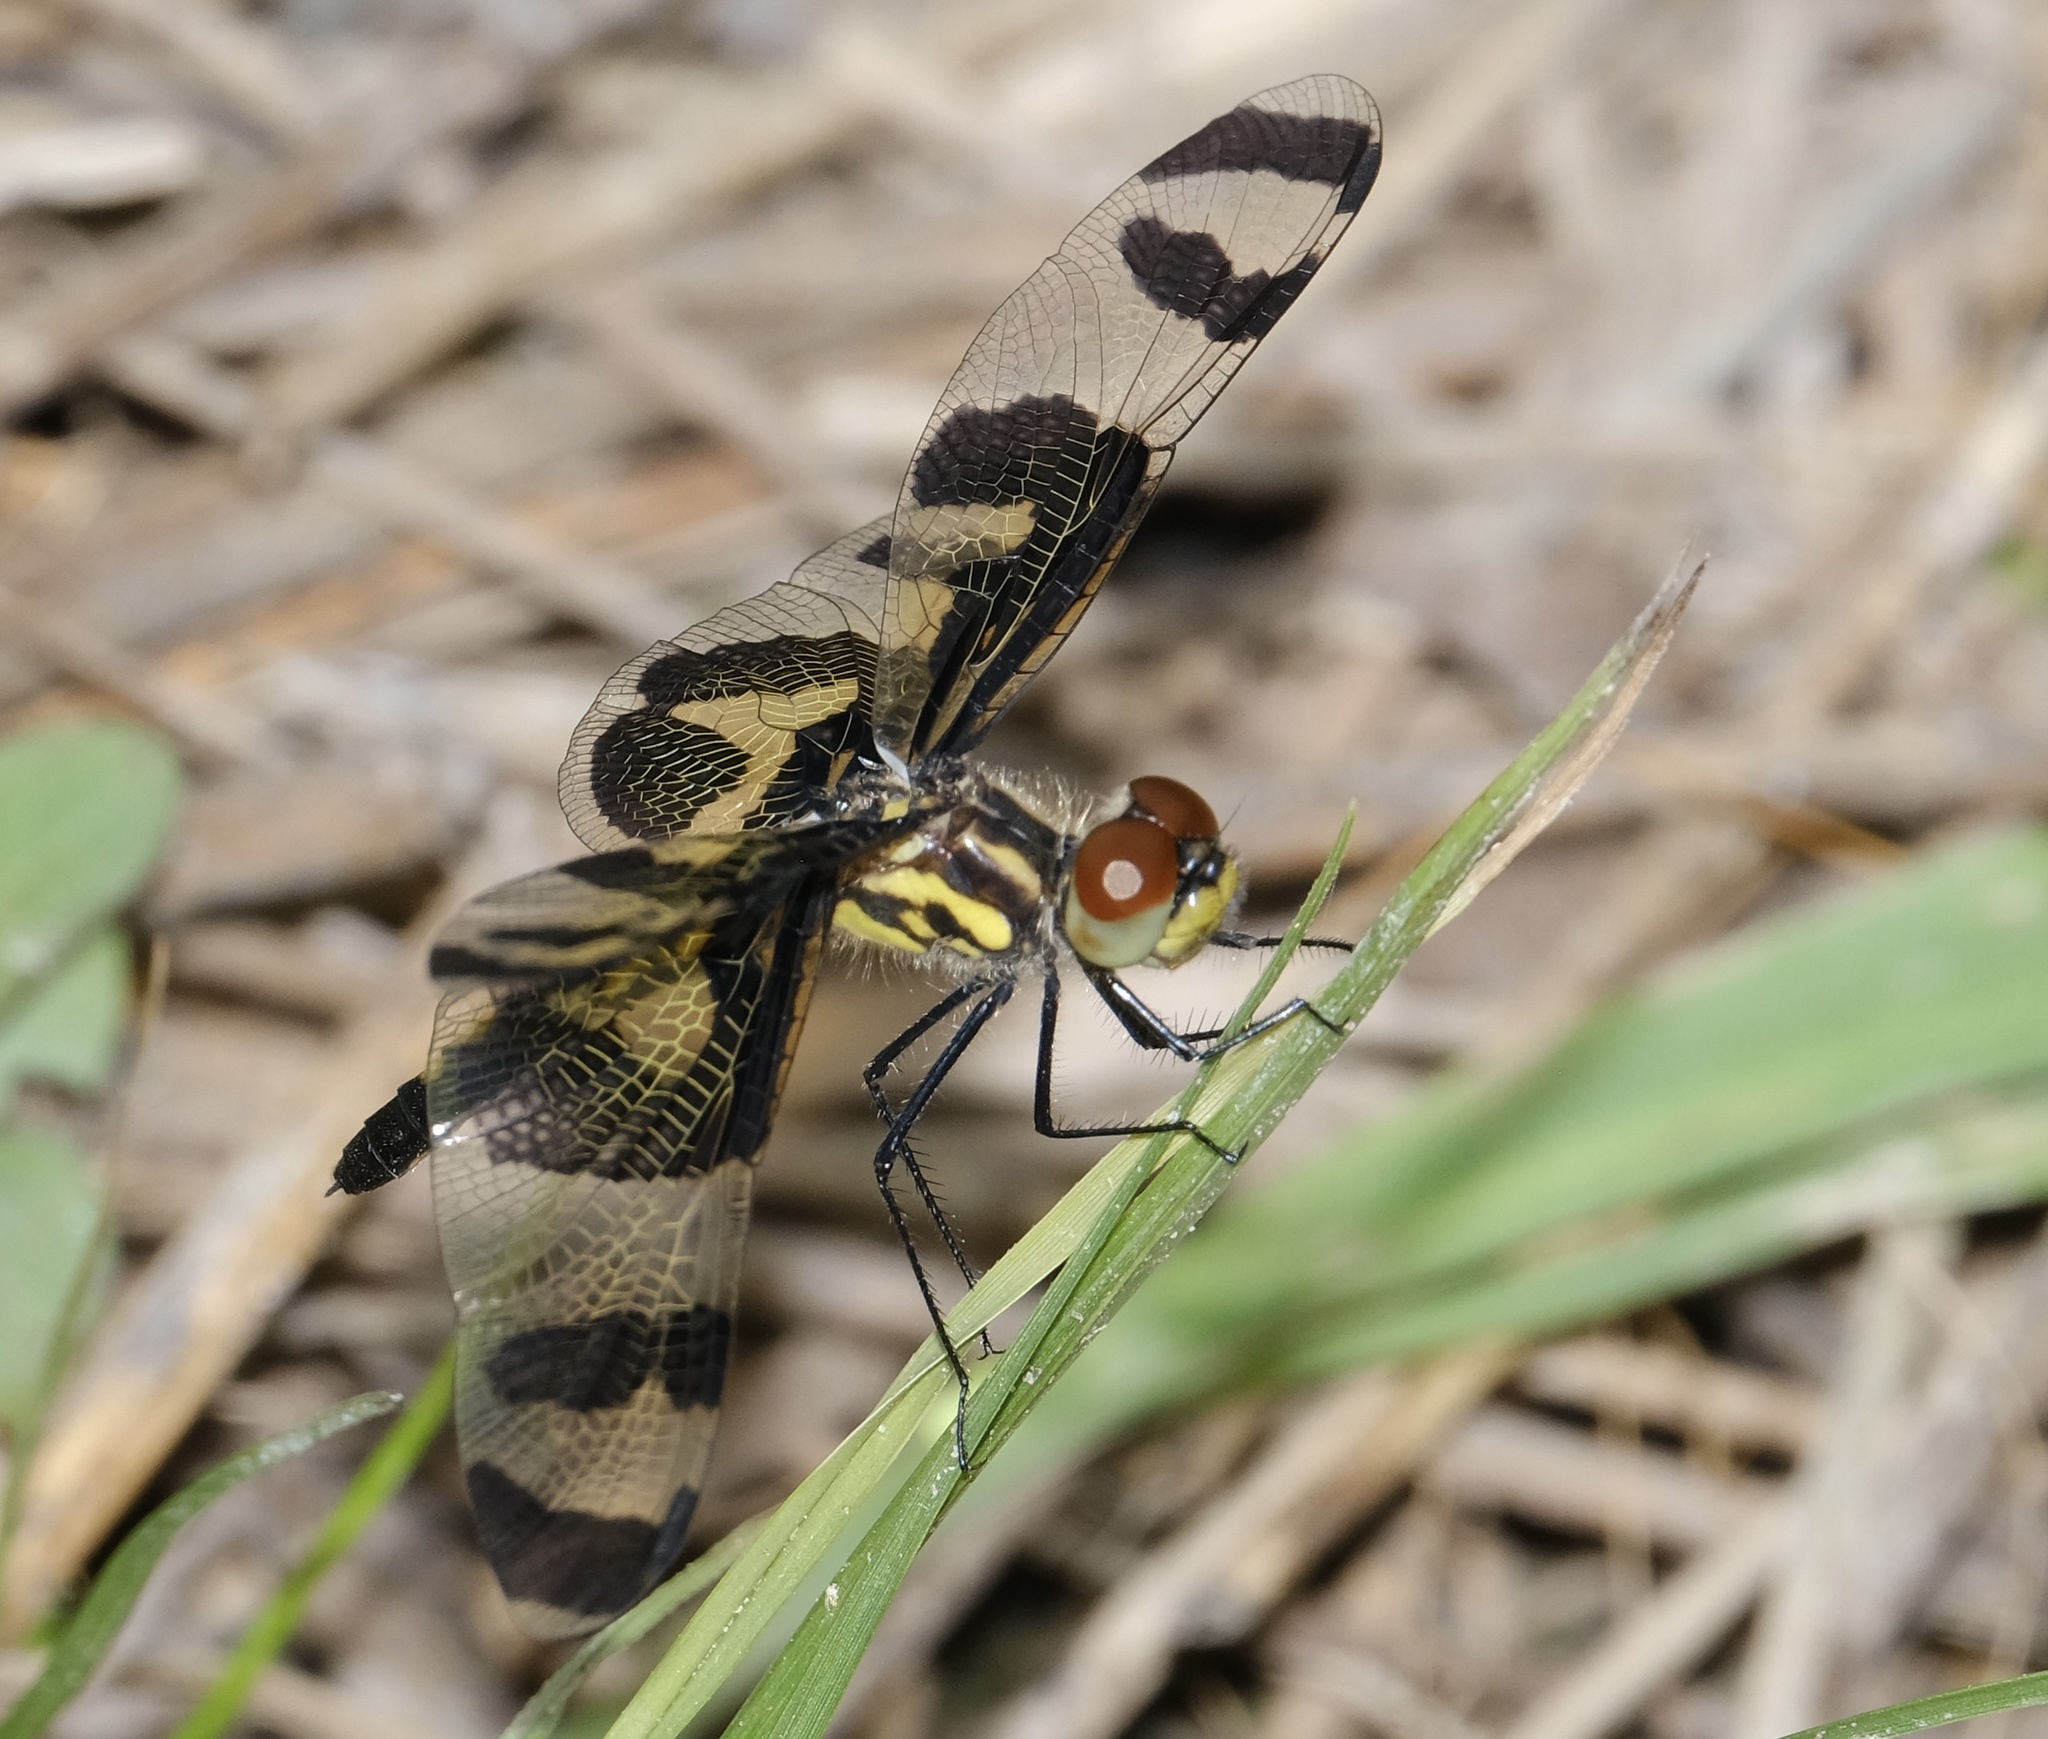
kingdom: Animalia
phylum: Arthropoda
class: Insecta
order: Odonata
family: Libellulidae
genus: Celithemis
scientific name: Celithemis fasciata
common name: Banded pennant
